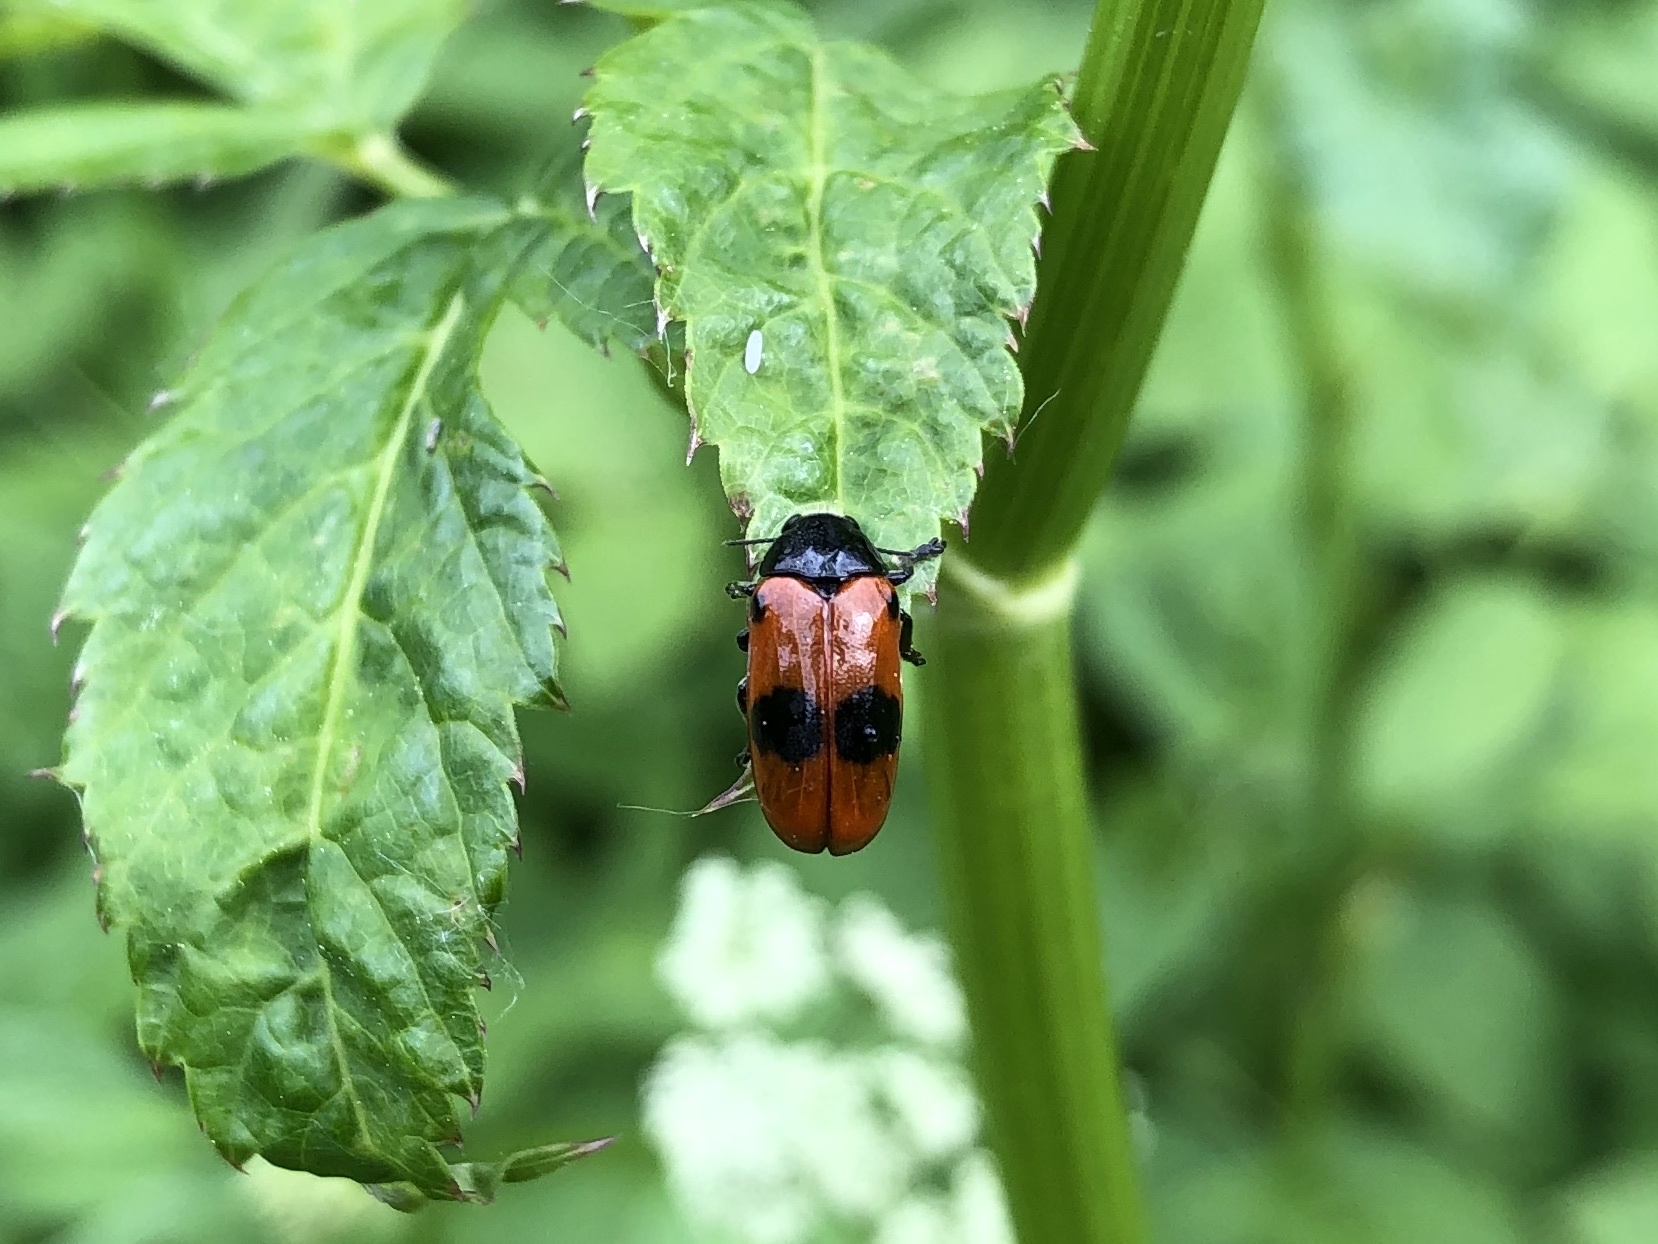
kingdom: Animalia
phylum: Arthropoda
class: Insecta
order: Coleoptera
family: Chrysomelidae
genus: Clytra
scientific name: Clytra laeviuscula
